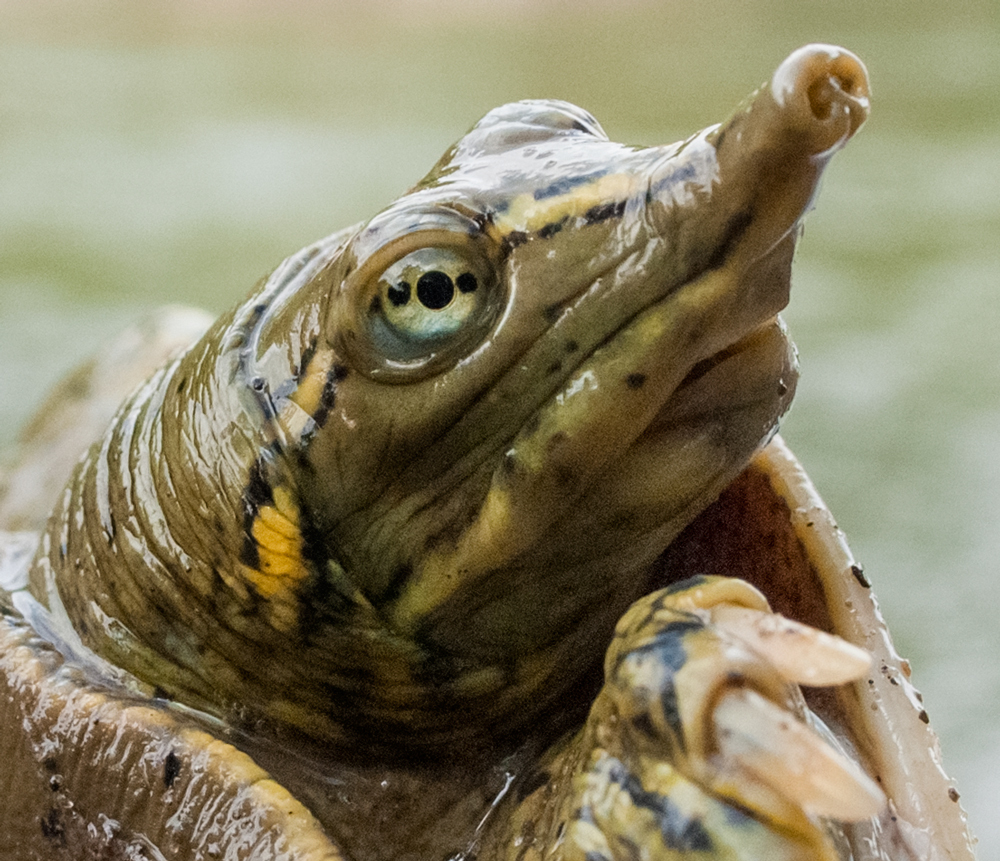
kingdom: Animalia
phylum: Chordata
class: Testudines
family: Trionychidae
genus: Apalone
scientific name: Apalone spinifera
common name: Spiny softshell turtle
